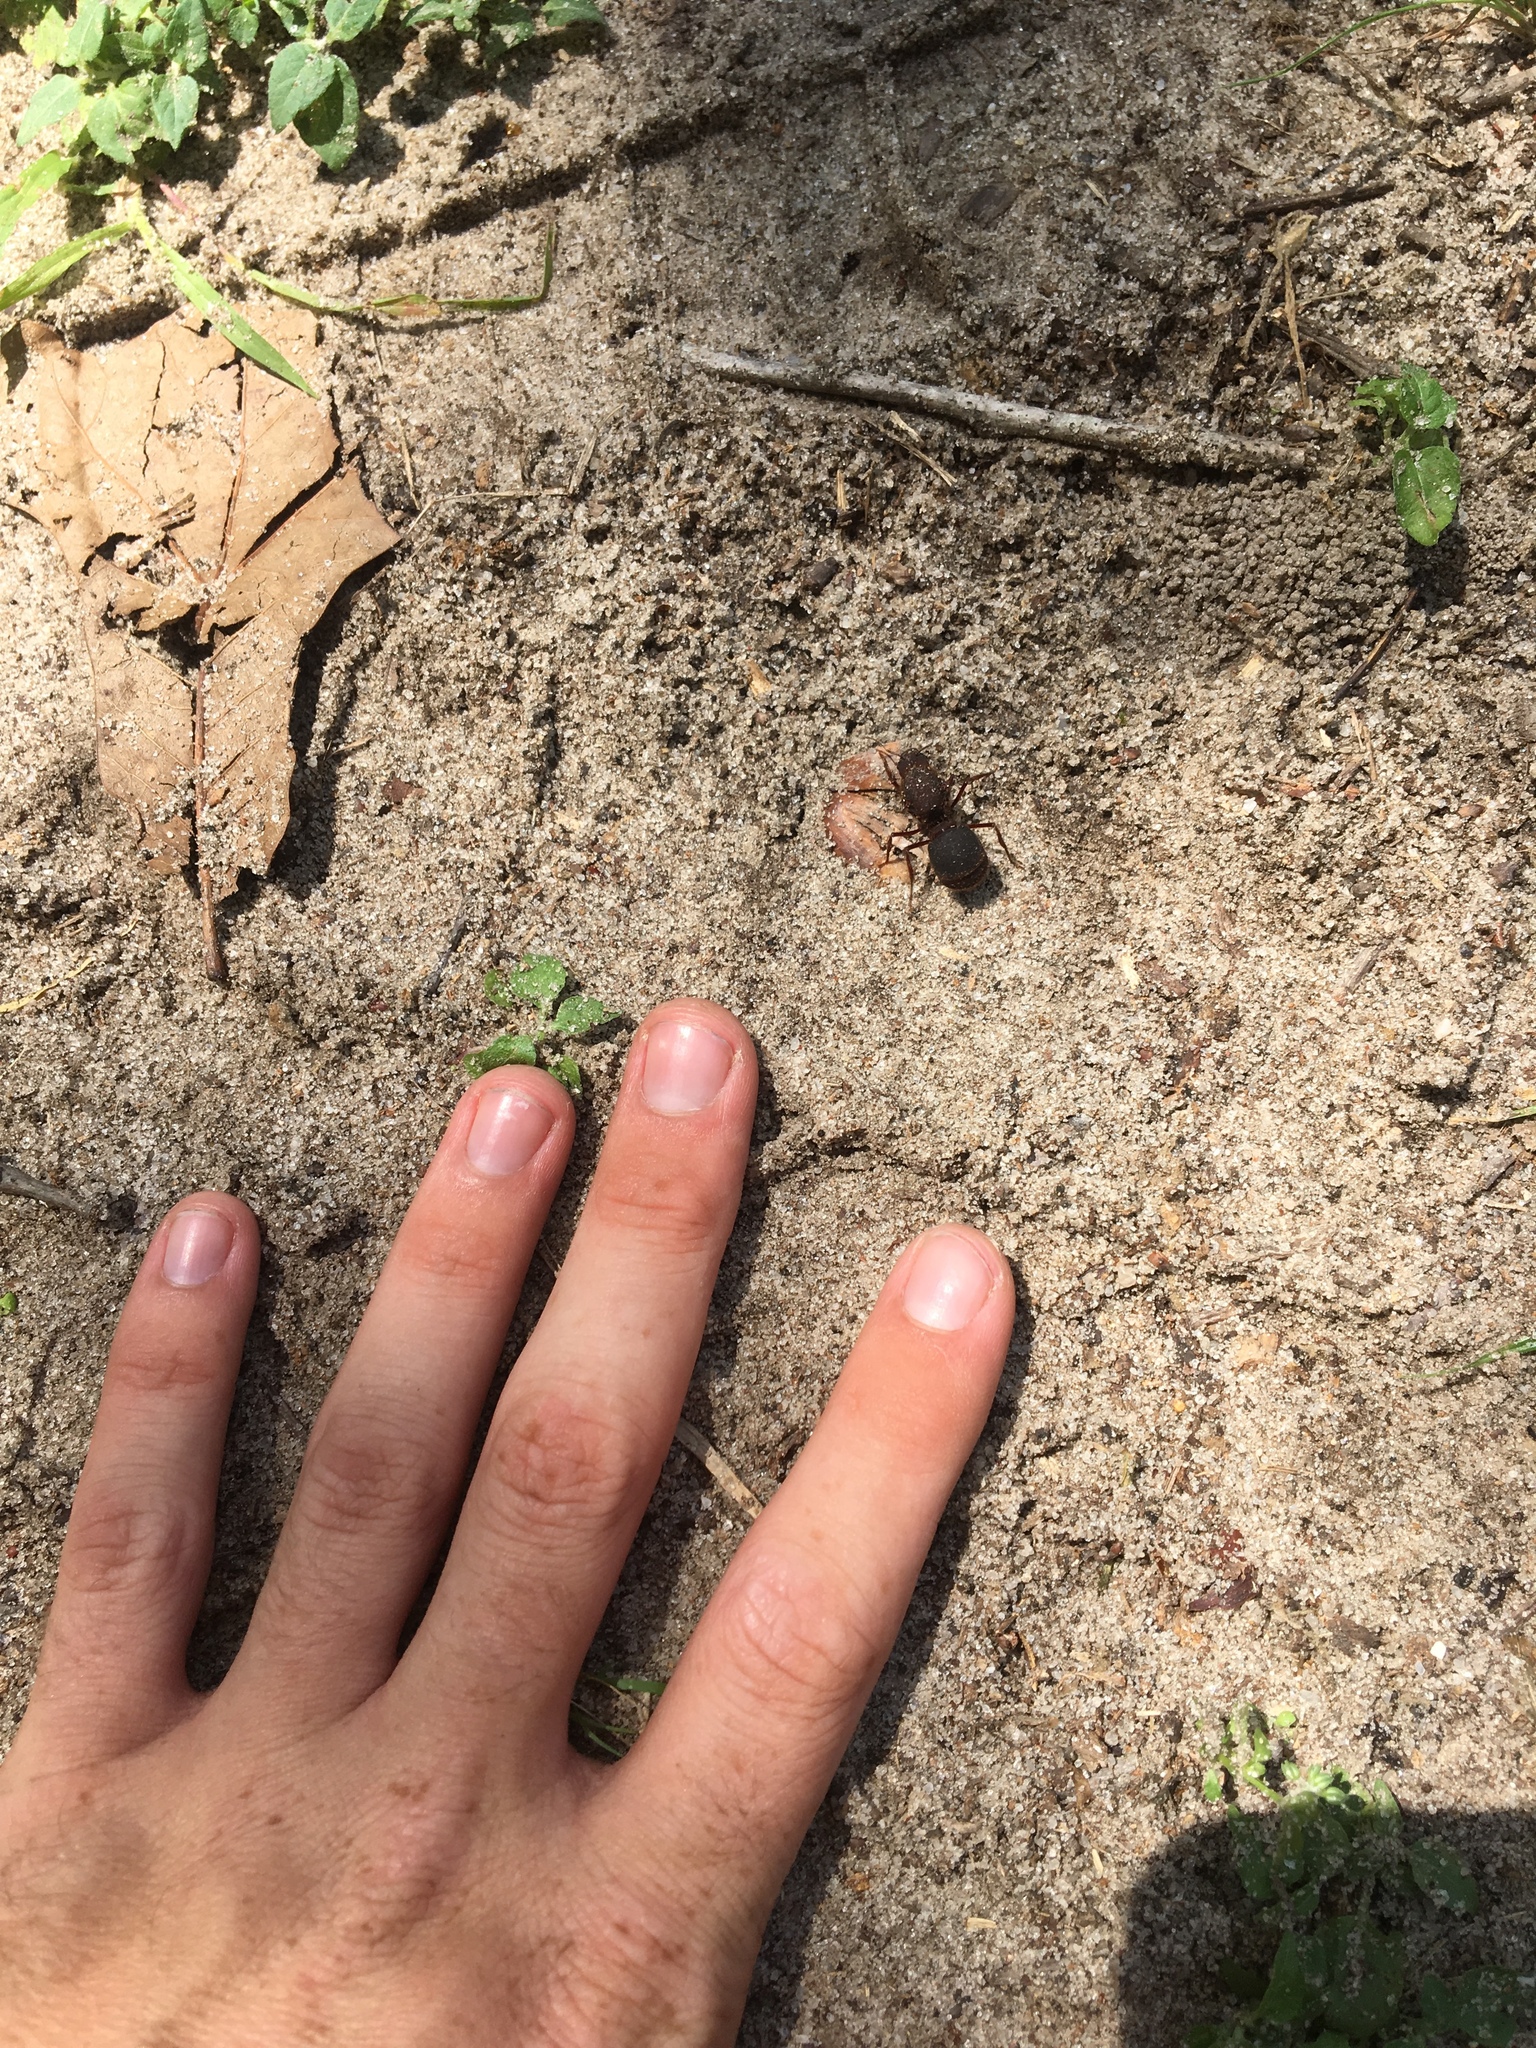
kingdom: Animalia
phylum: Arthropoda
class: Insecta
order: Hymenoptera
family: Formicidae
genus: Atta
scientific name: Atta texana
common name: Texas leafcutting ant
